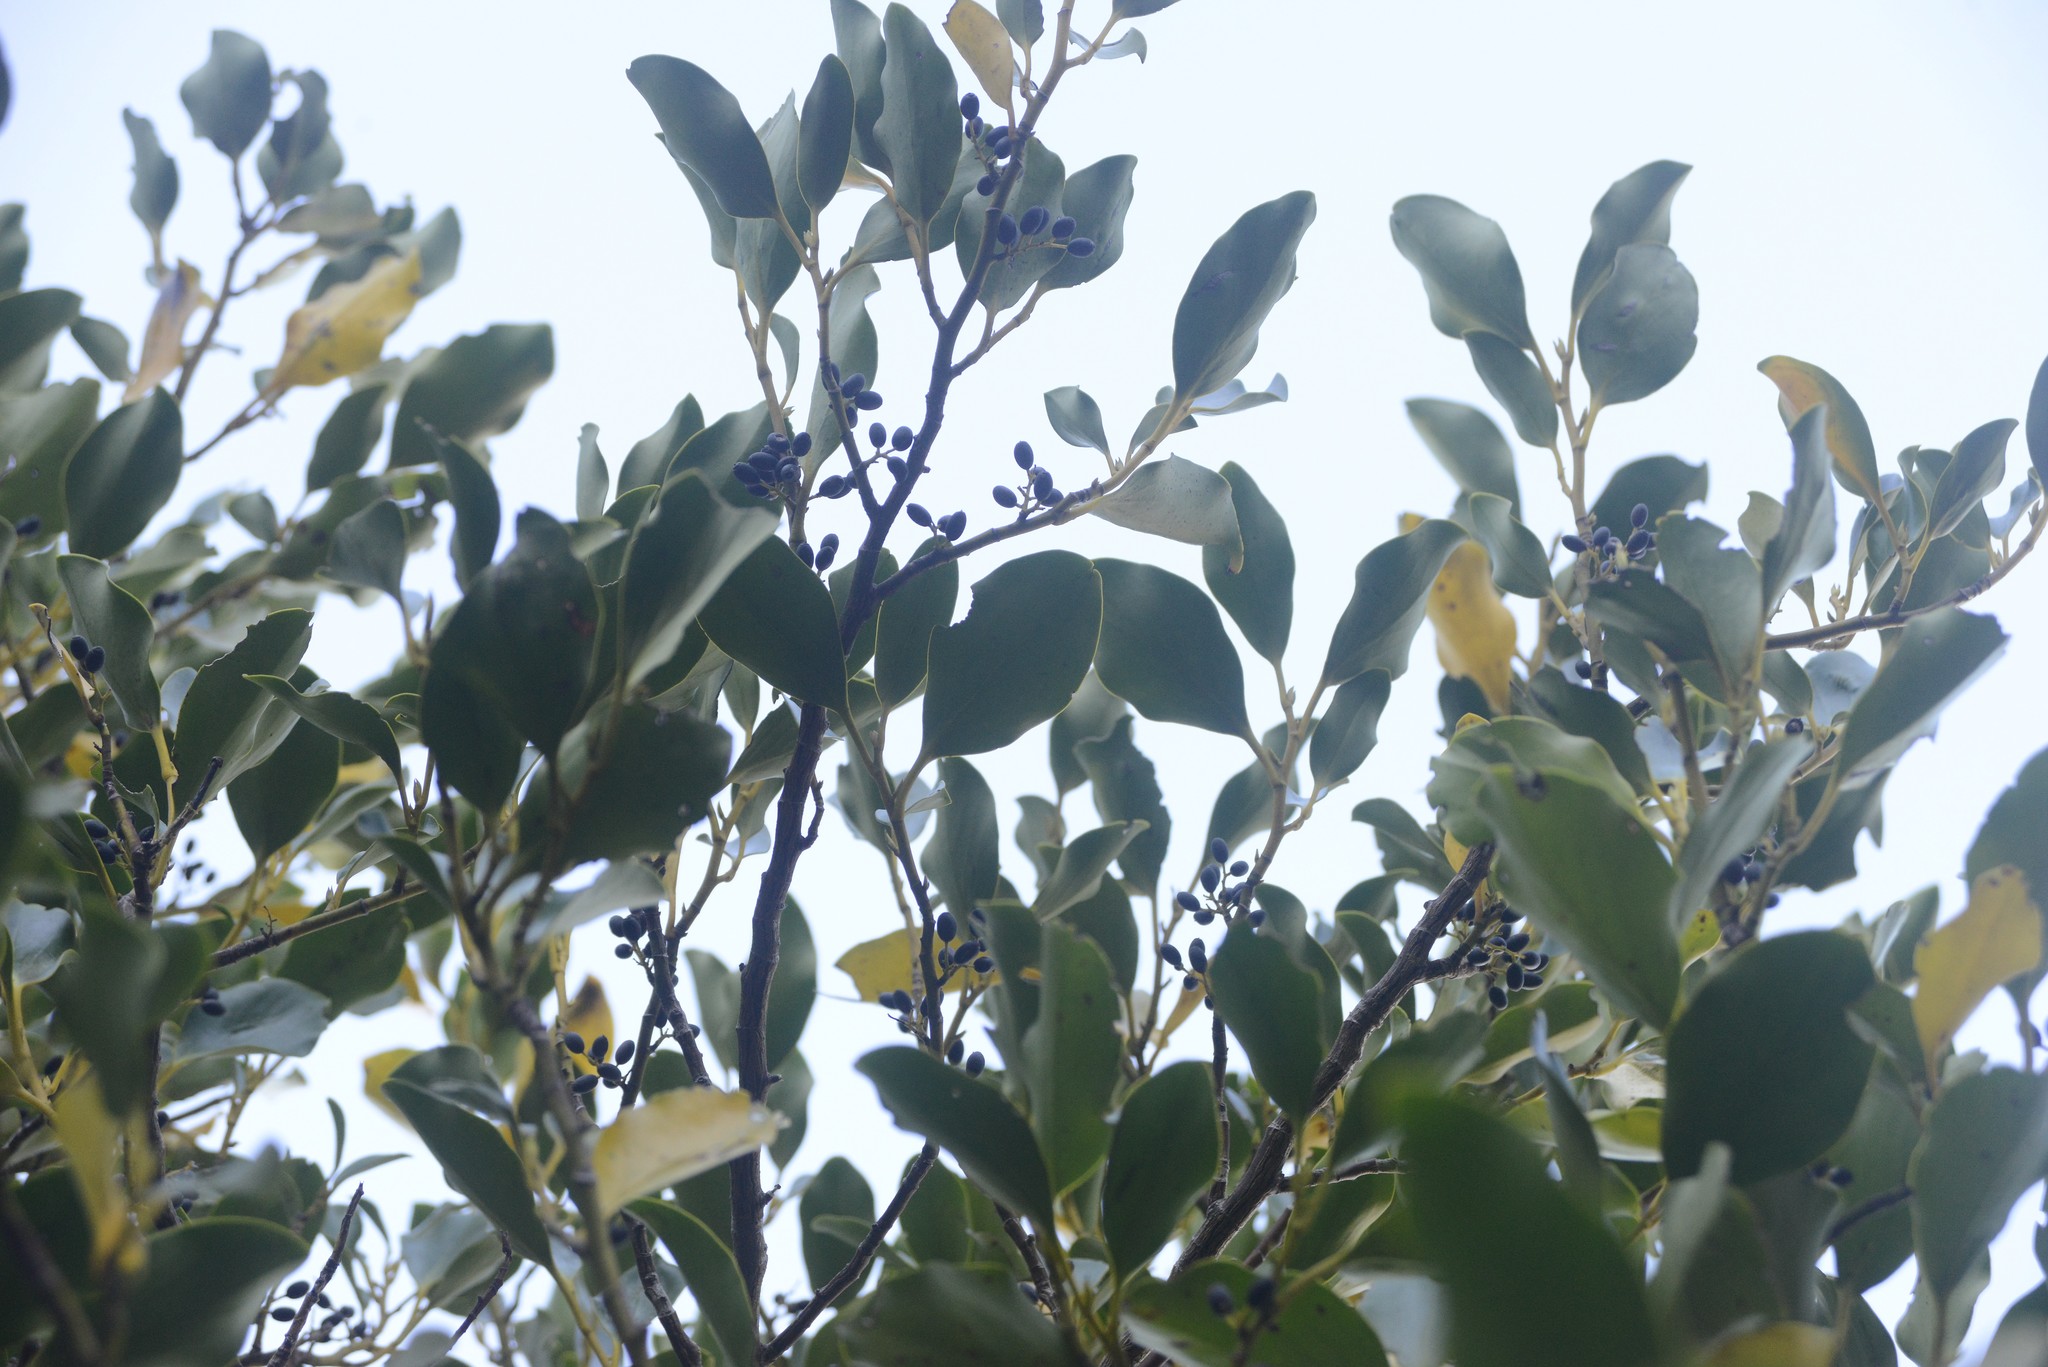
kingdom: Plantae
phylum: Tracheophyta
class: Magnoliopsida
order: Apiales
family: Griseliniaceae
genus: Griselinia
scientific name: Griselinia littoralis
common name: New zealand broadleaf
